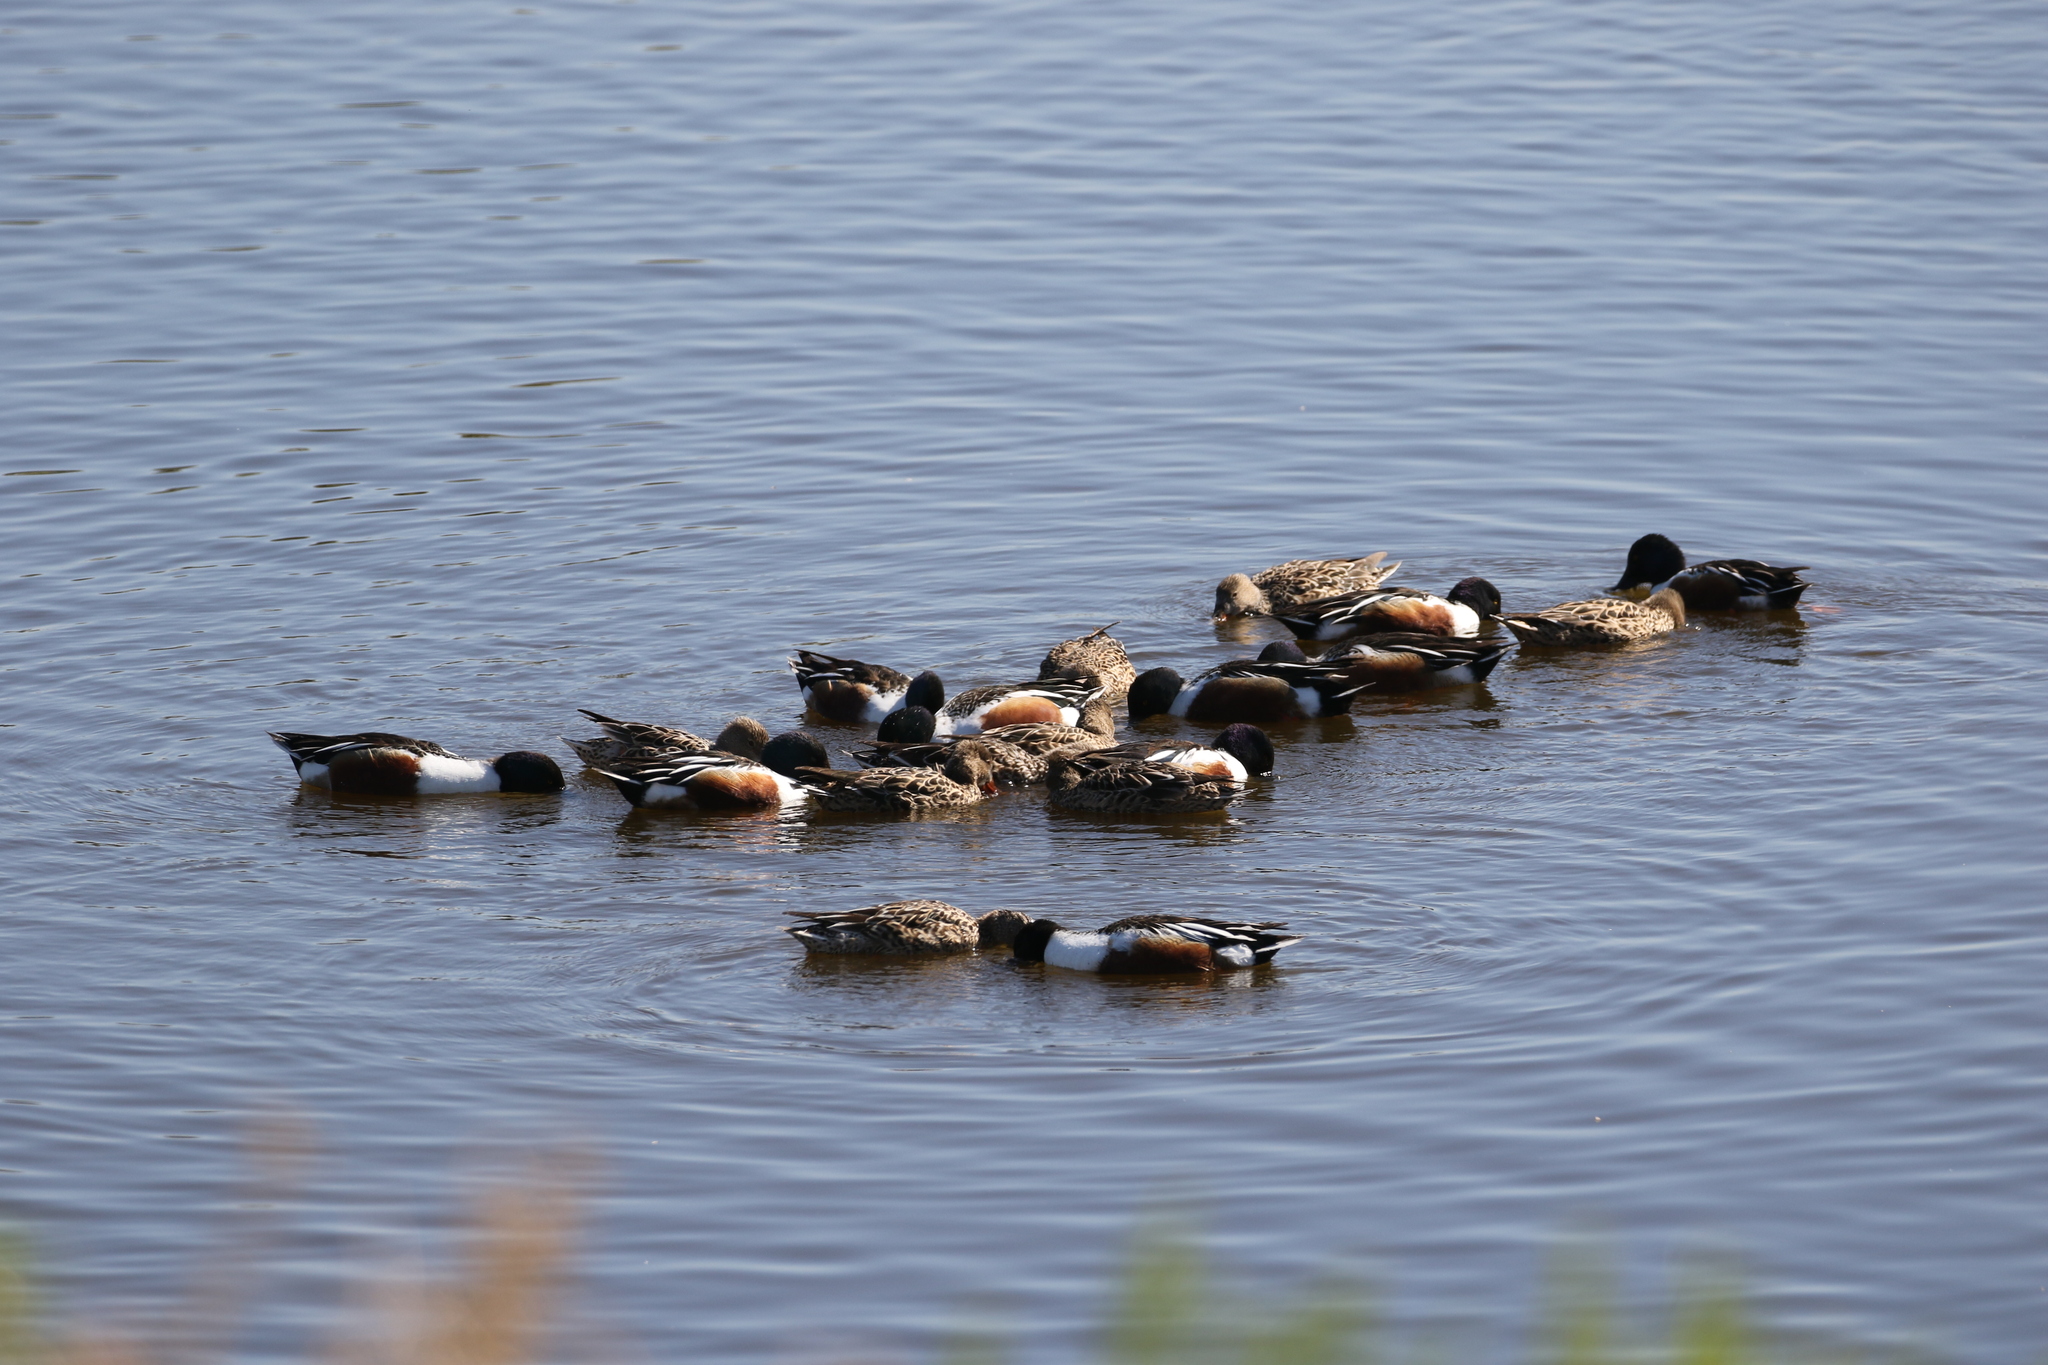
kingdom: Animalia
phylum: Chordata
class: Aves
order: Anseriformes
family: Anatidae
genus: Spatula
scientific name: Spatula clypeata
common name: Northern shoveler
